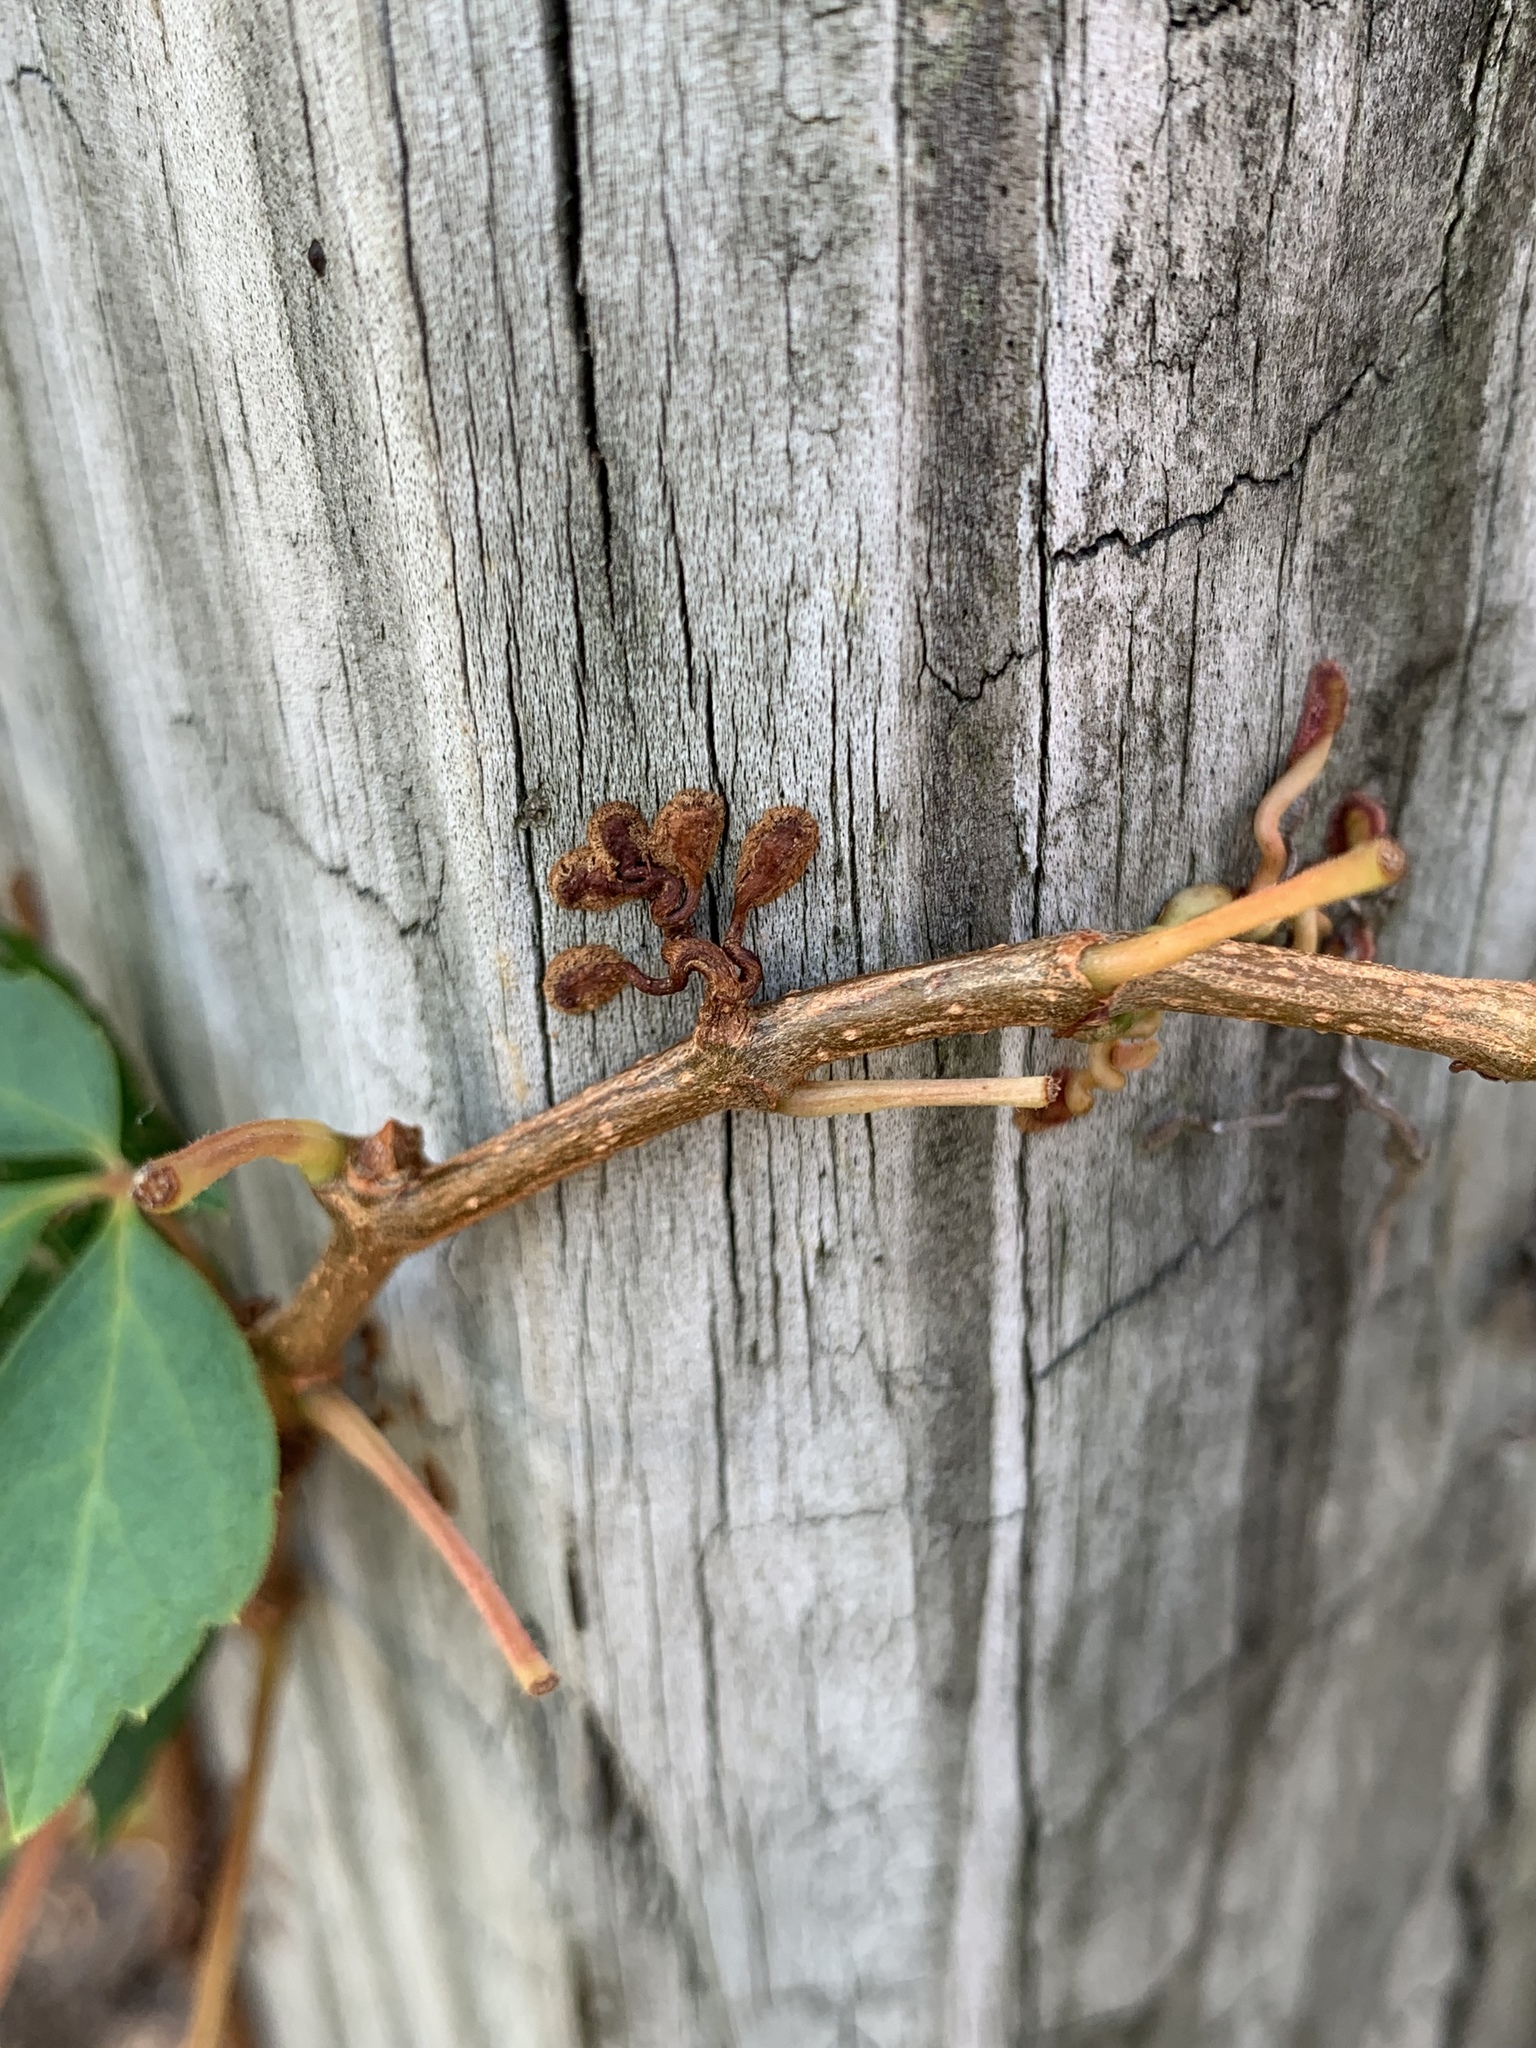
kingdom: Plantae
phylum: Tracheophyta
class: Magnoliopsida
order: Vitales
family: Vitaceae
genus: Parthenocissus
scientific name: Parthenocissus quinquefolia
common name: Virginia-creeper
